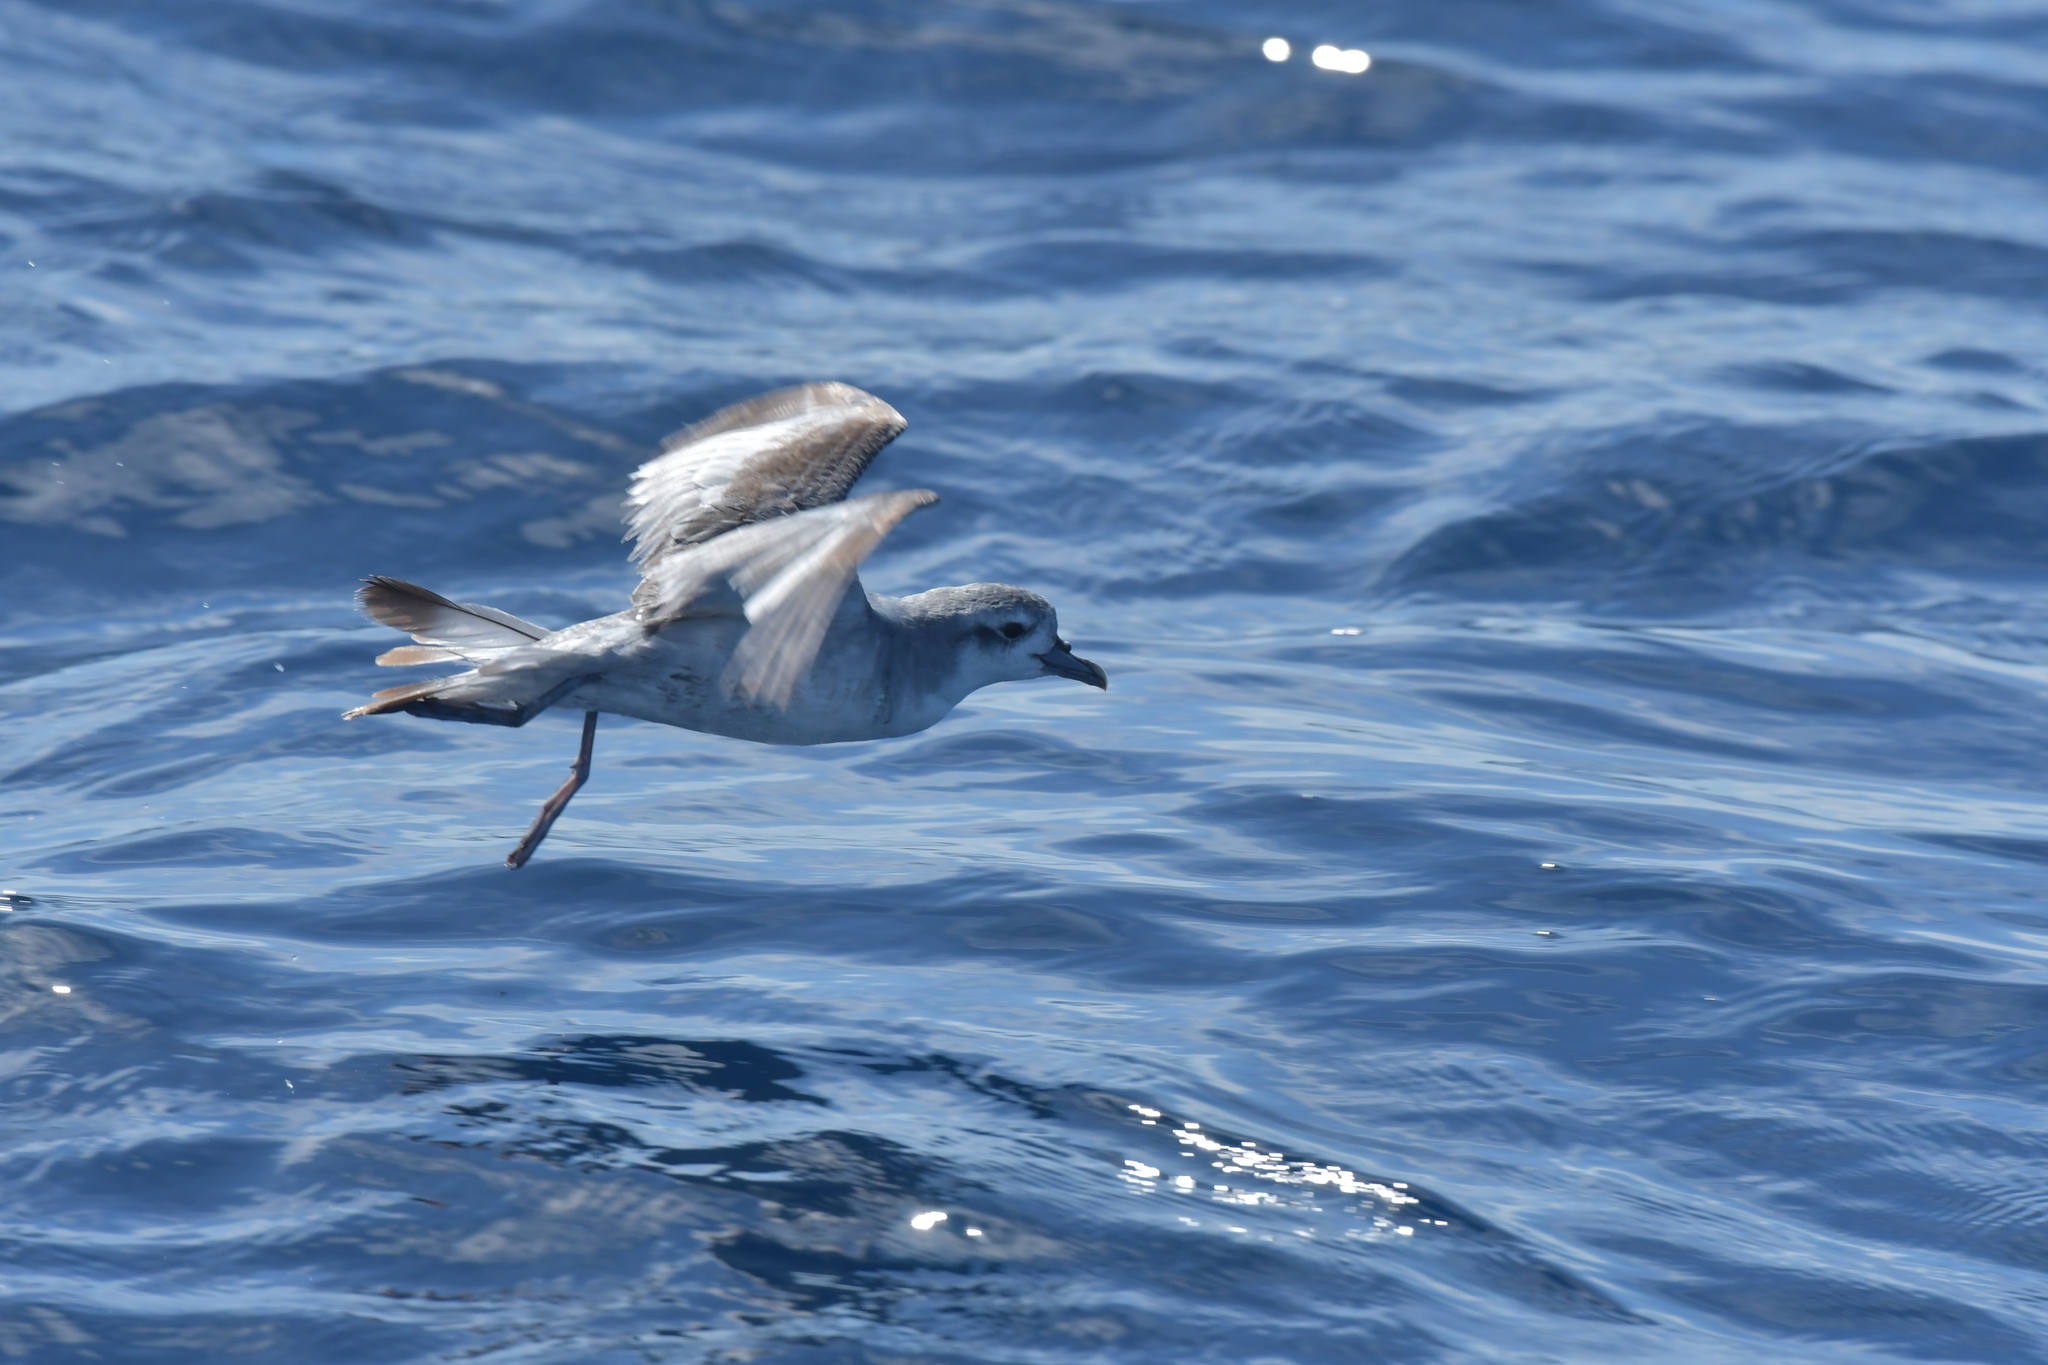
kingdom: Animalia
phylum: Chordata
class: Aves
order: Procellariiformes
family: Procellariidae
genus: Pachyptila
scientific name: Pachyptila turtur
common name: Fairy prion
